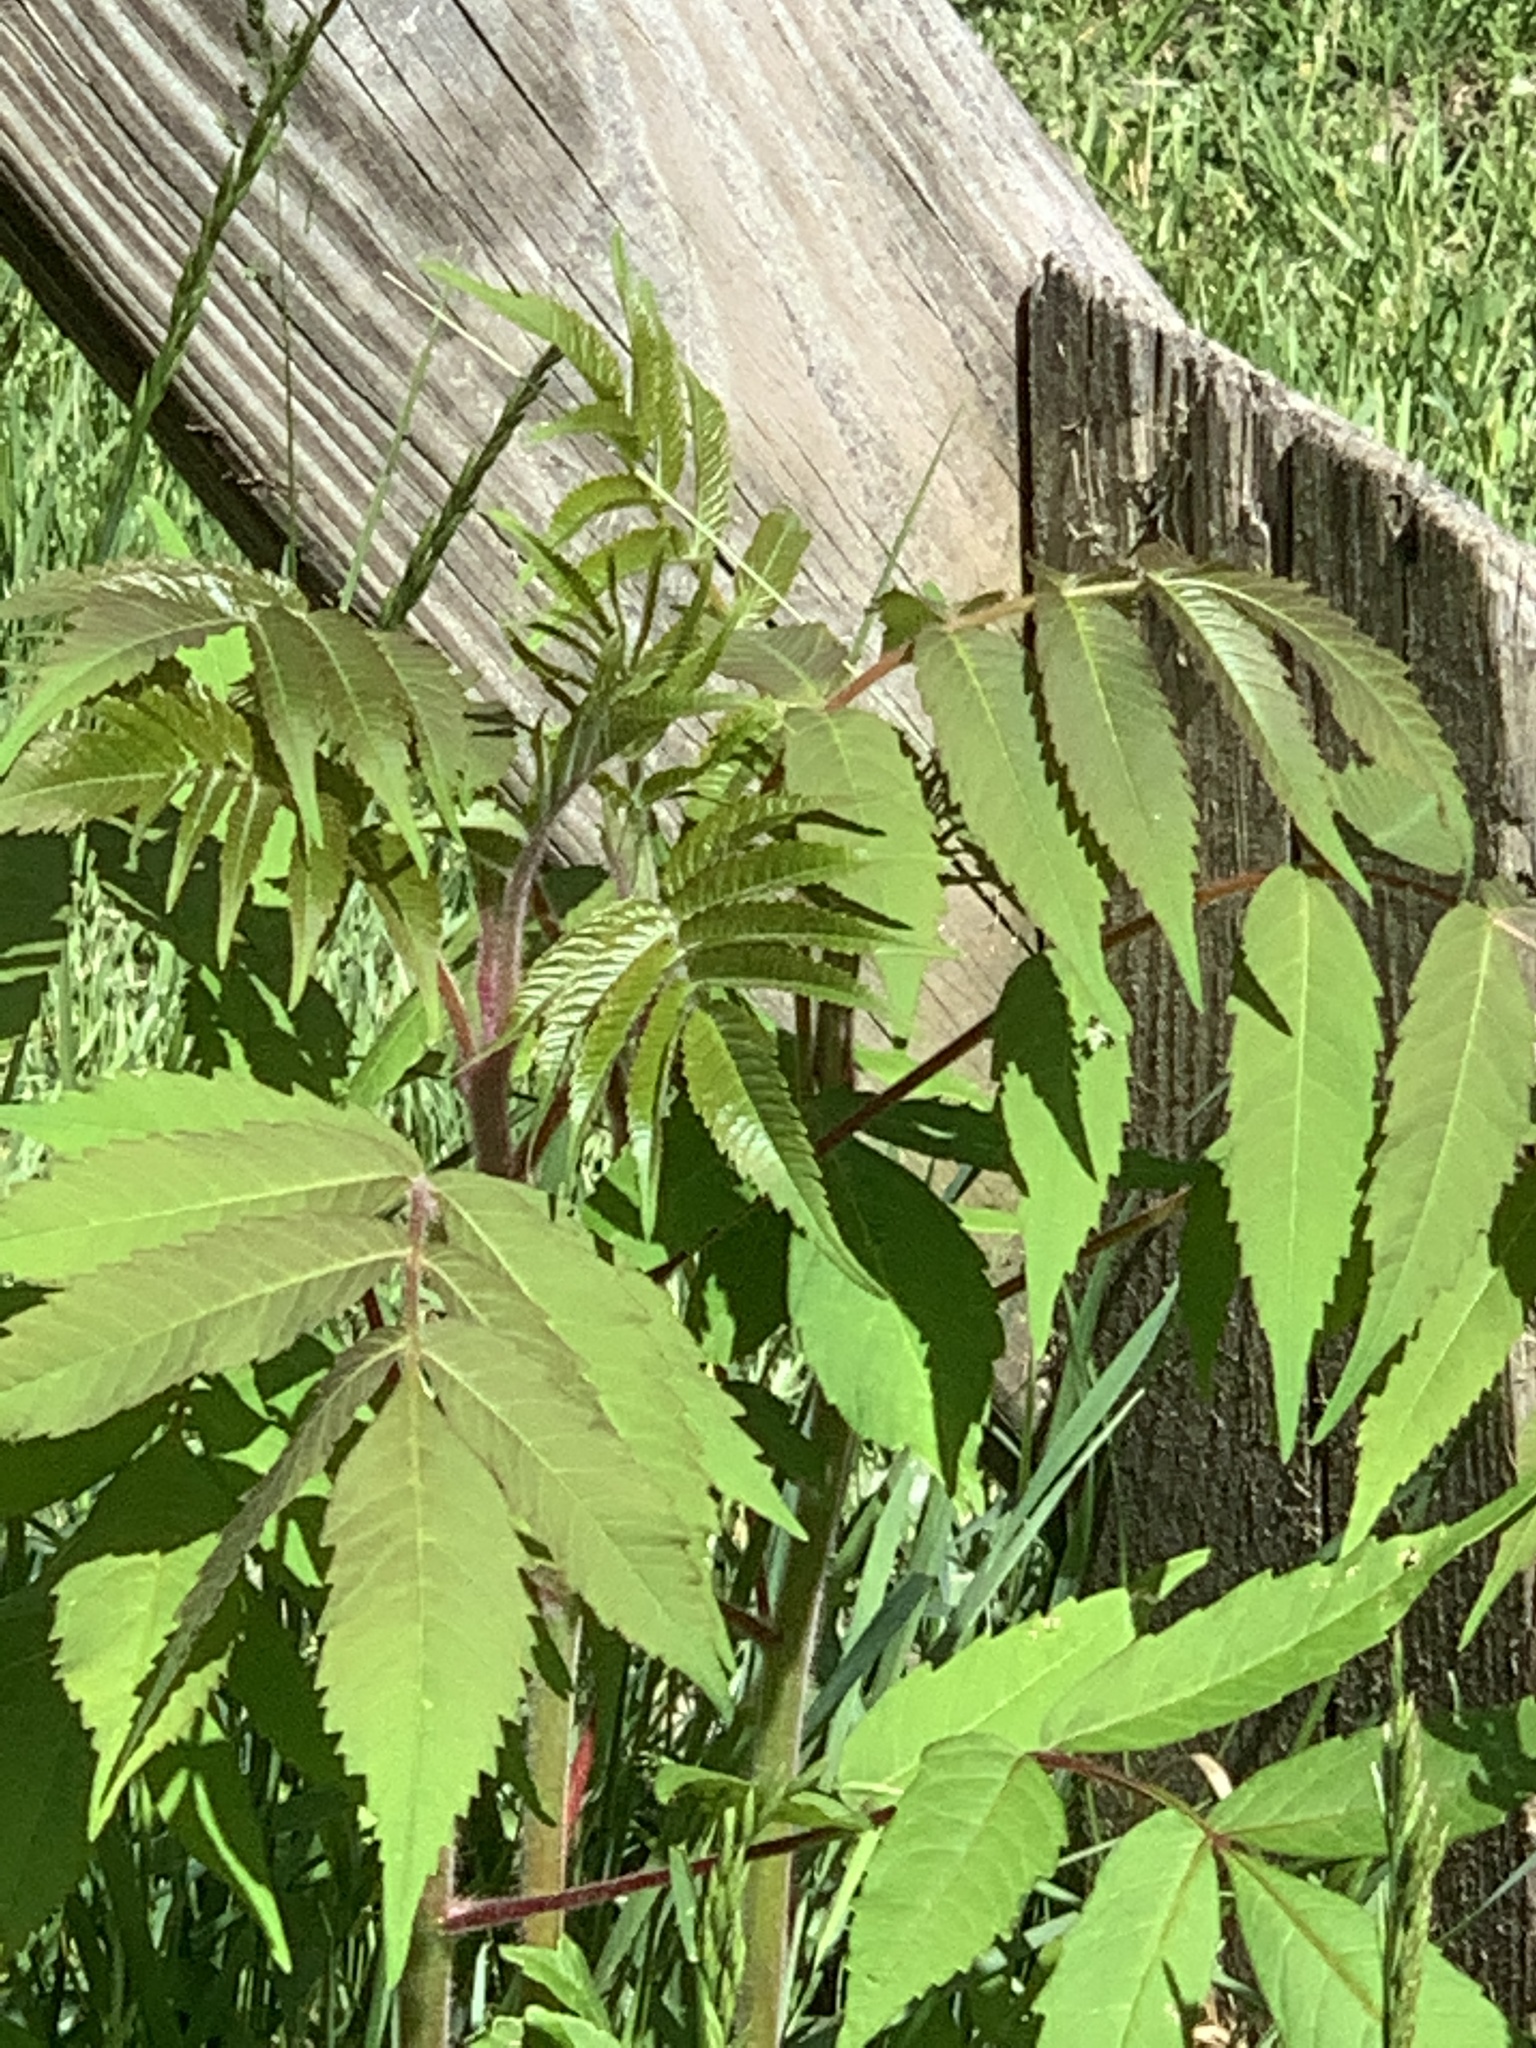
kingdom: Plantae
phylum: Tracheophyta
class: Magnoliopsida
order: Sapindales
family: Anacardiaceae
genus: Rhus
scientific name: Rhus typhina
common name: Staghorn sumac
